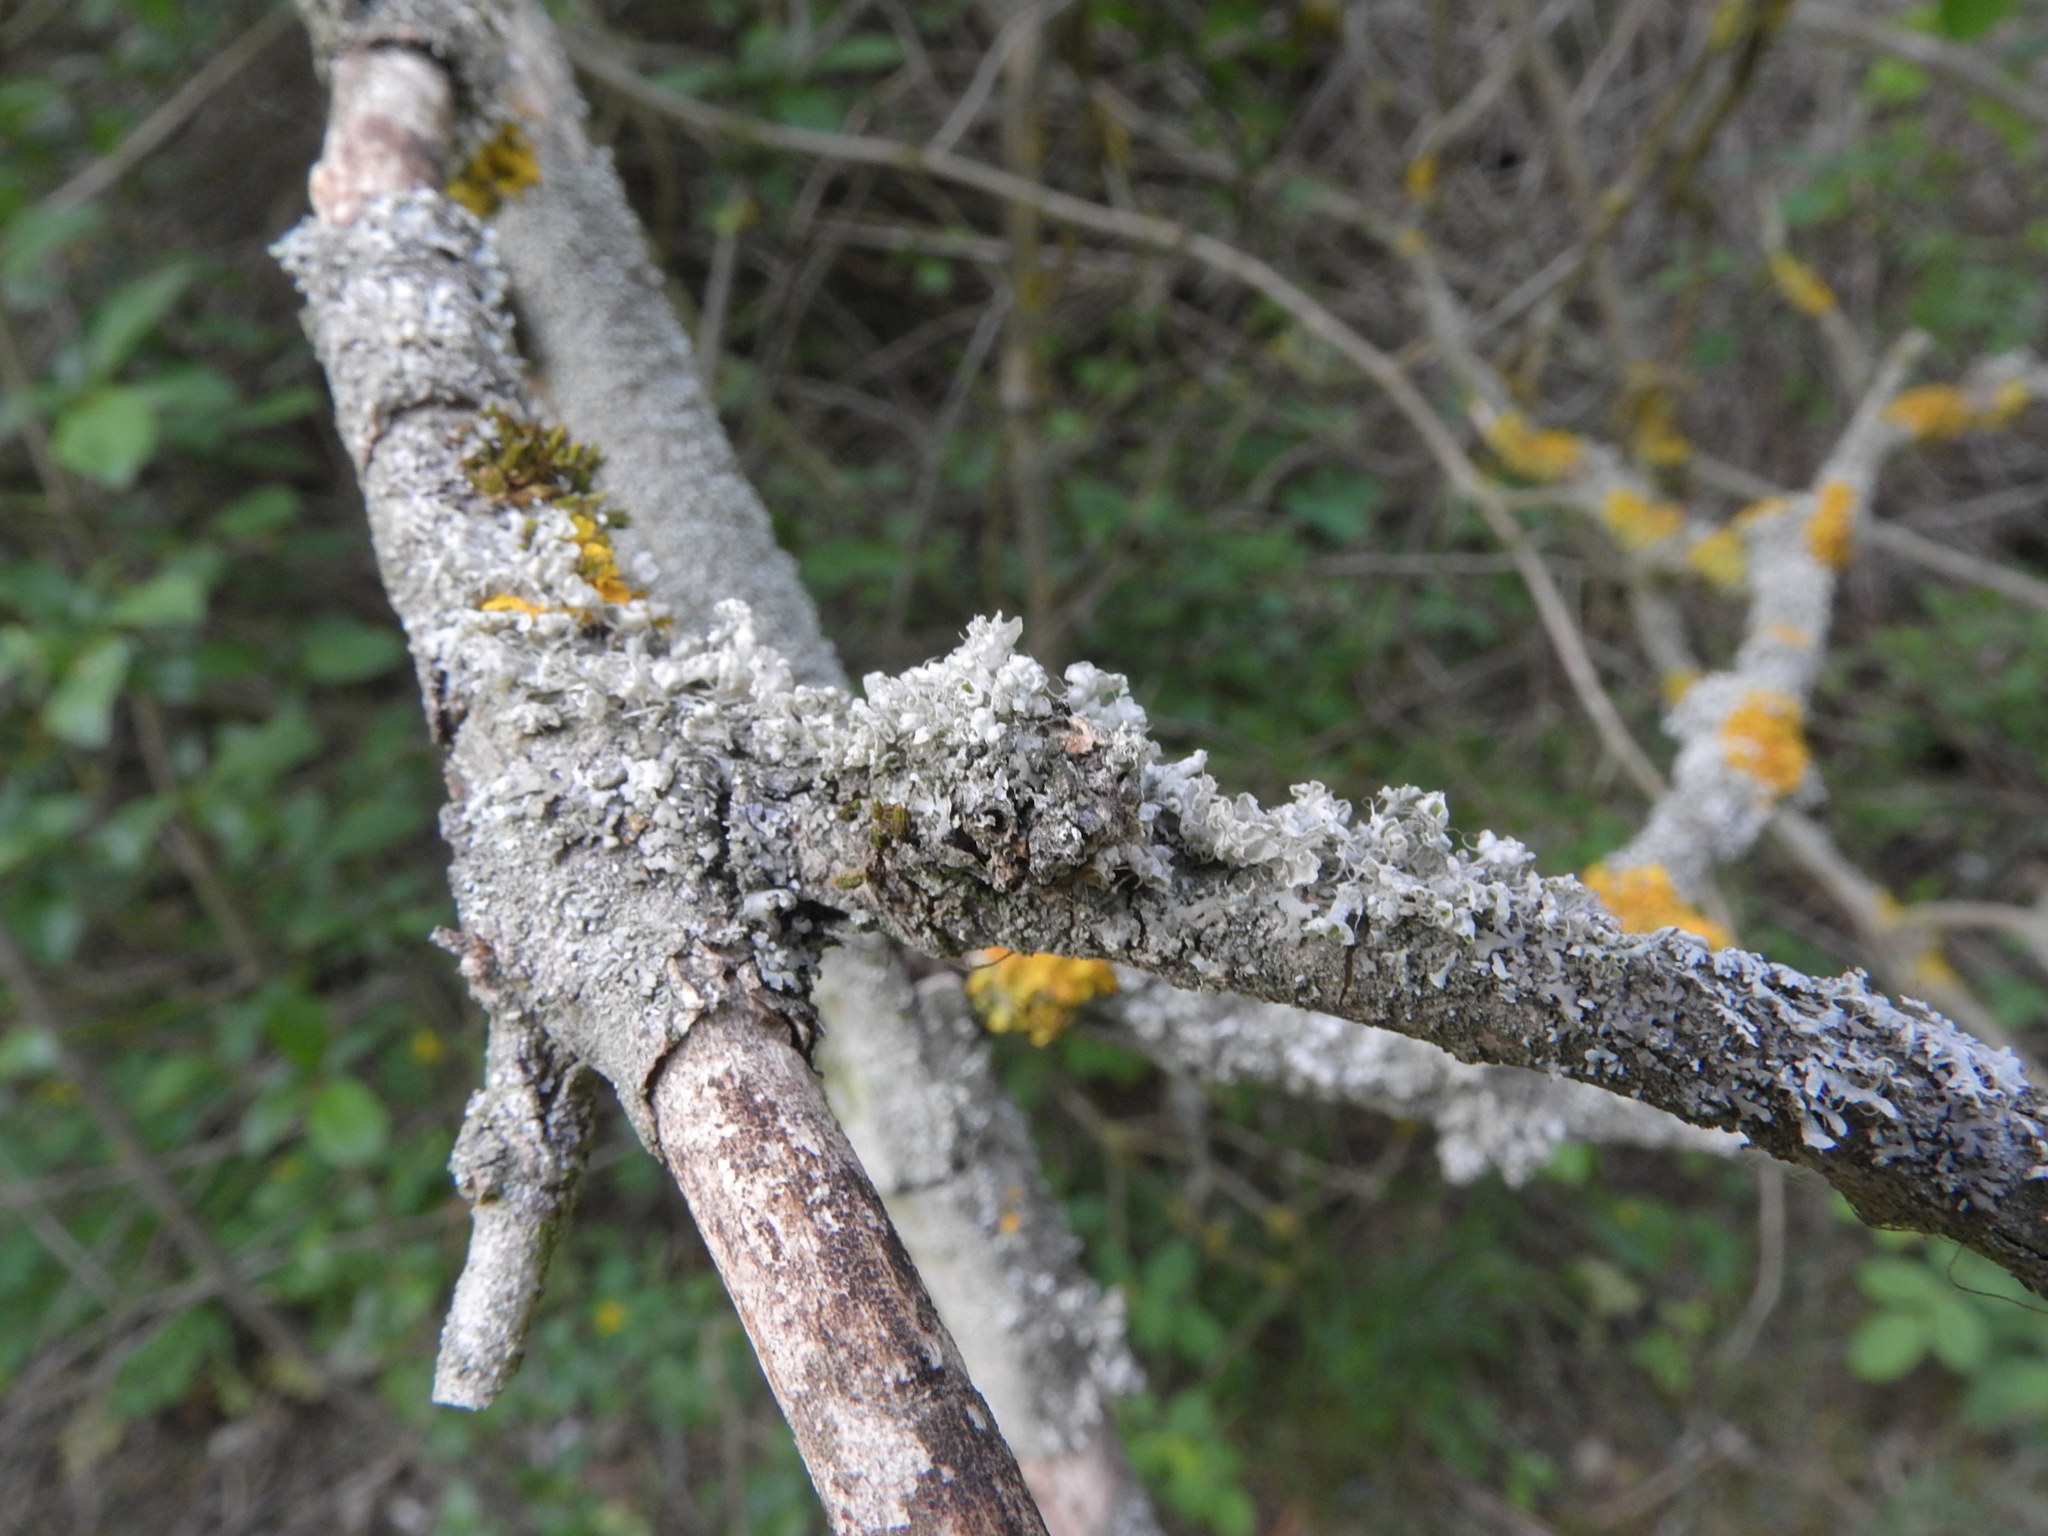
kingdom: Fungi
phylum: Ascomycota
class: Lecanoromycetes
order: Caliciales
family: Physciaceae
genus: Physcia
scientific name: Physcia adscendens
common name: Hooded rosette lichen
